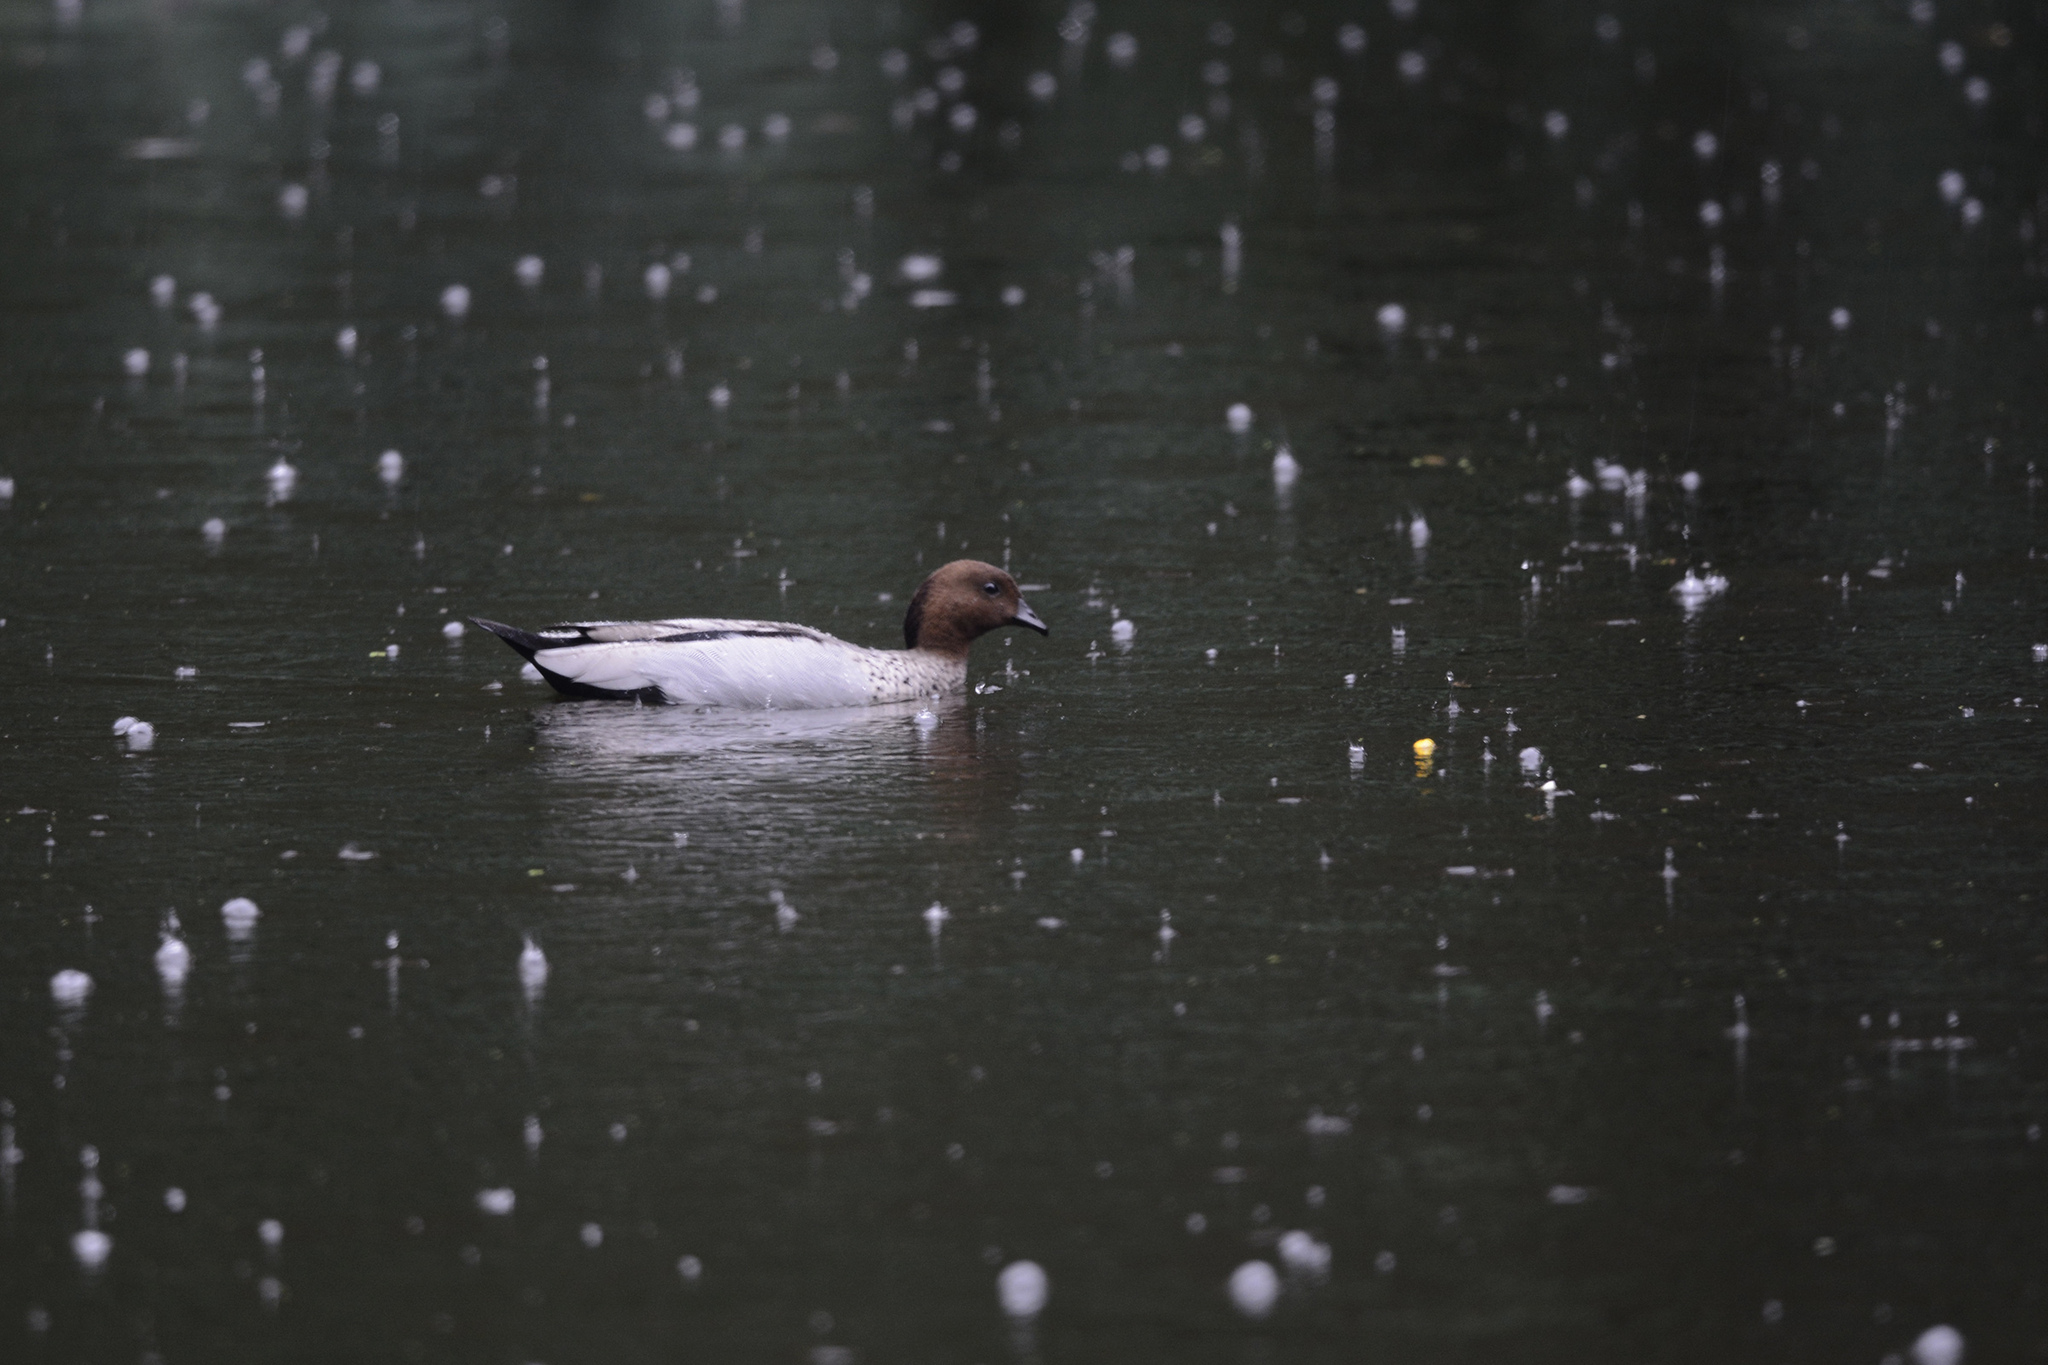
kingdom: Animalia
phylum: Chordata
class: Aves
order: Anseriformes
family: Anatidae
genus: Chenonetta
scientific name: Chenonetta jubata
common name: Maned duck
